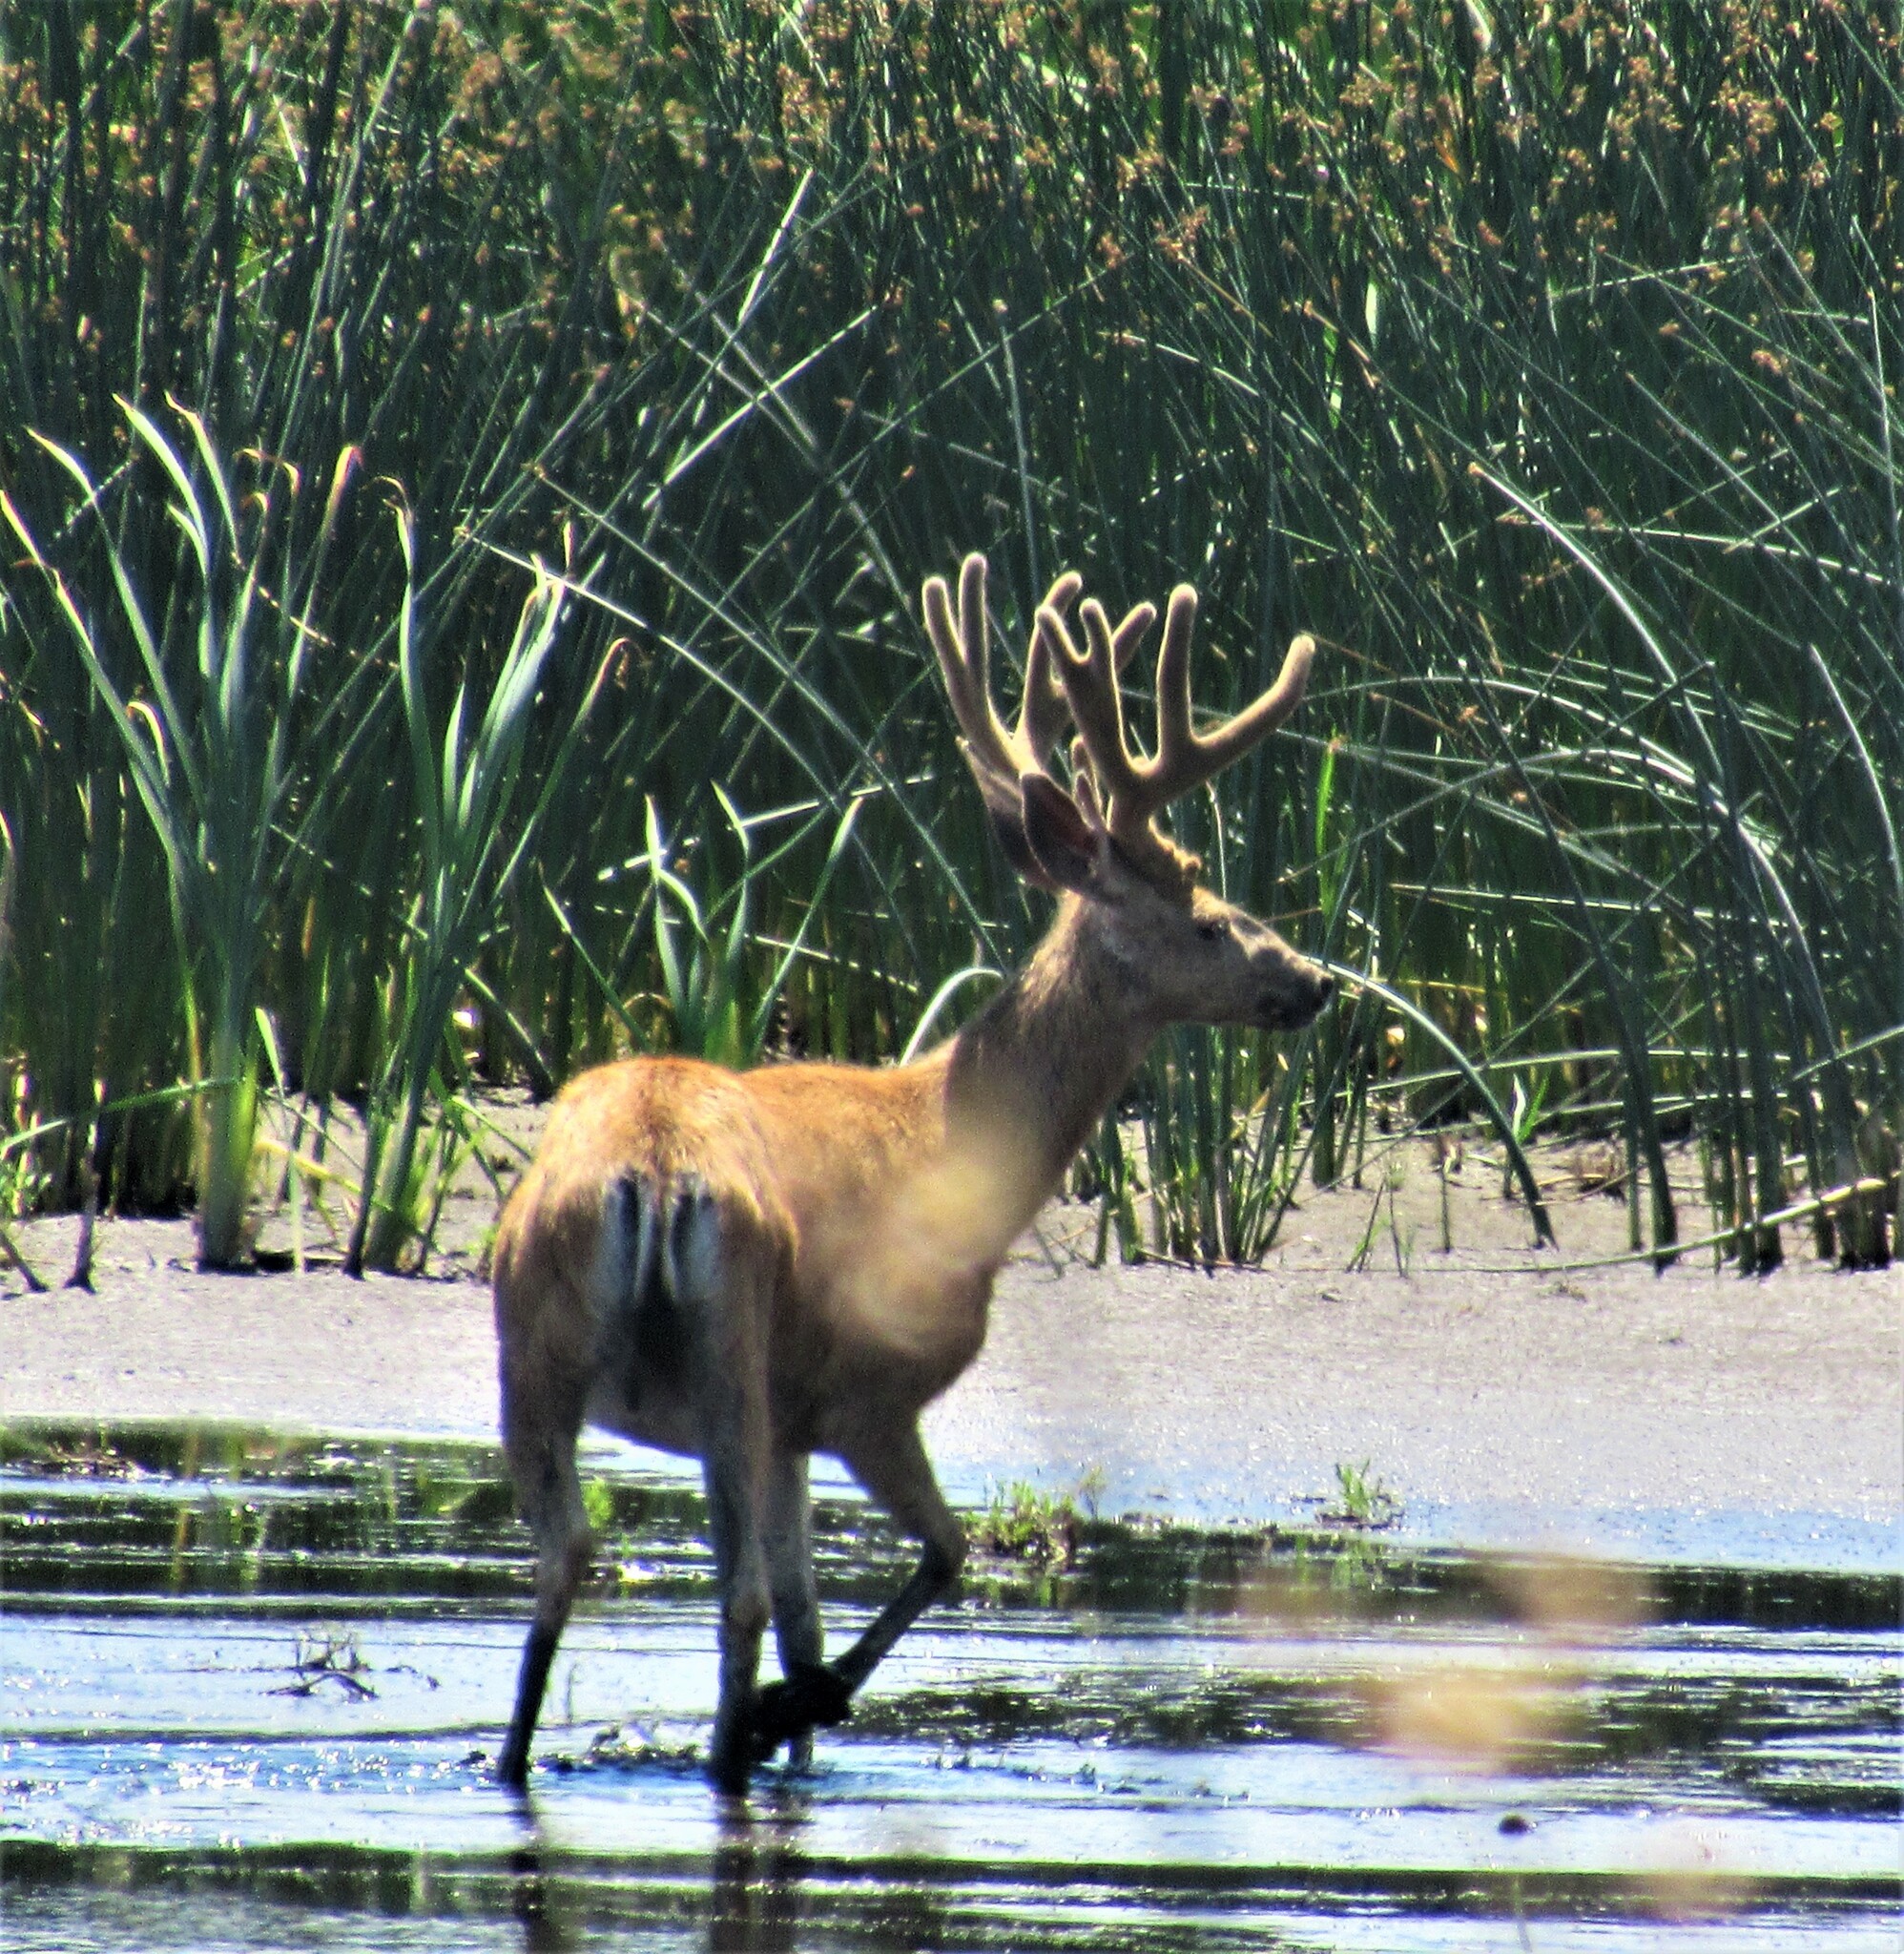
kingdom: Animalia
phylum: Chordata
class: Mammalia
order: Artiodactyla
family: Cervidae
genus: Odocoileus
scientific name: Odocoileus hemionus
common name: Mule deer
